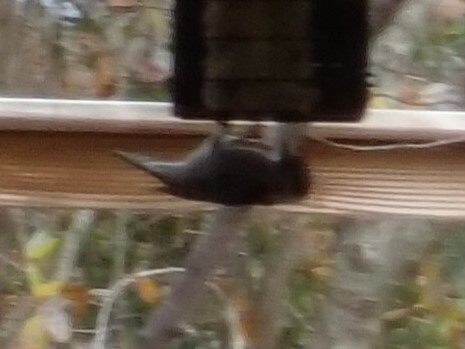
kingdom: Animalia
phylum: Chordata
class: Aves
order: Piciformes
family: Picidae
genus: Dryobates
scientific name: Dryobates pubescens
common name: Downy woodpecker
